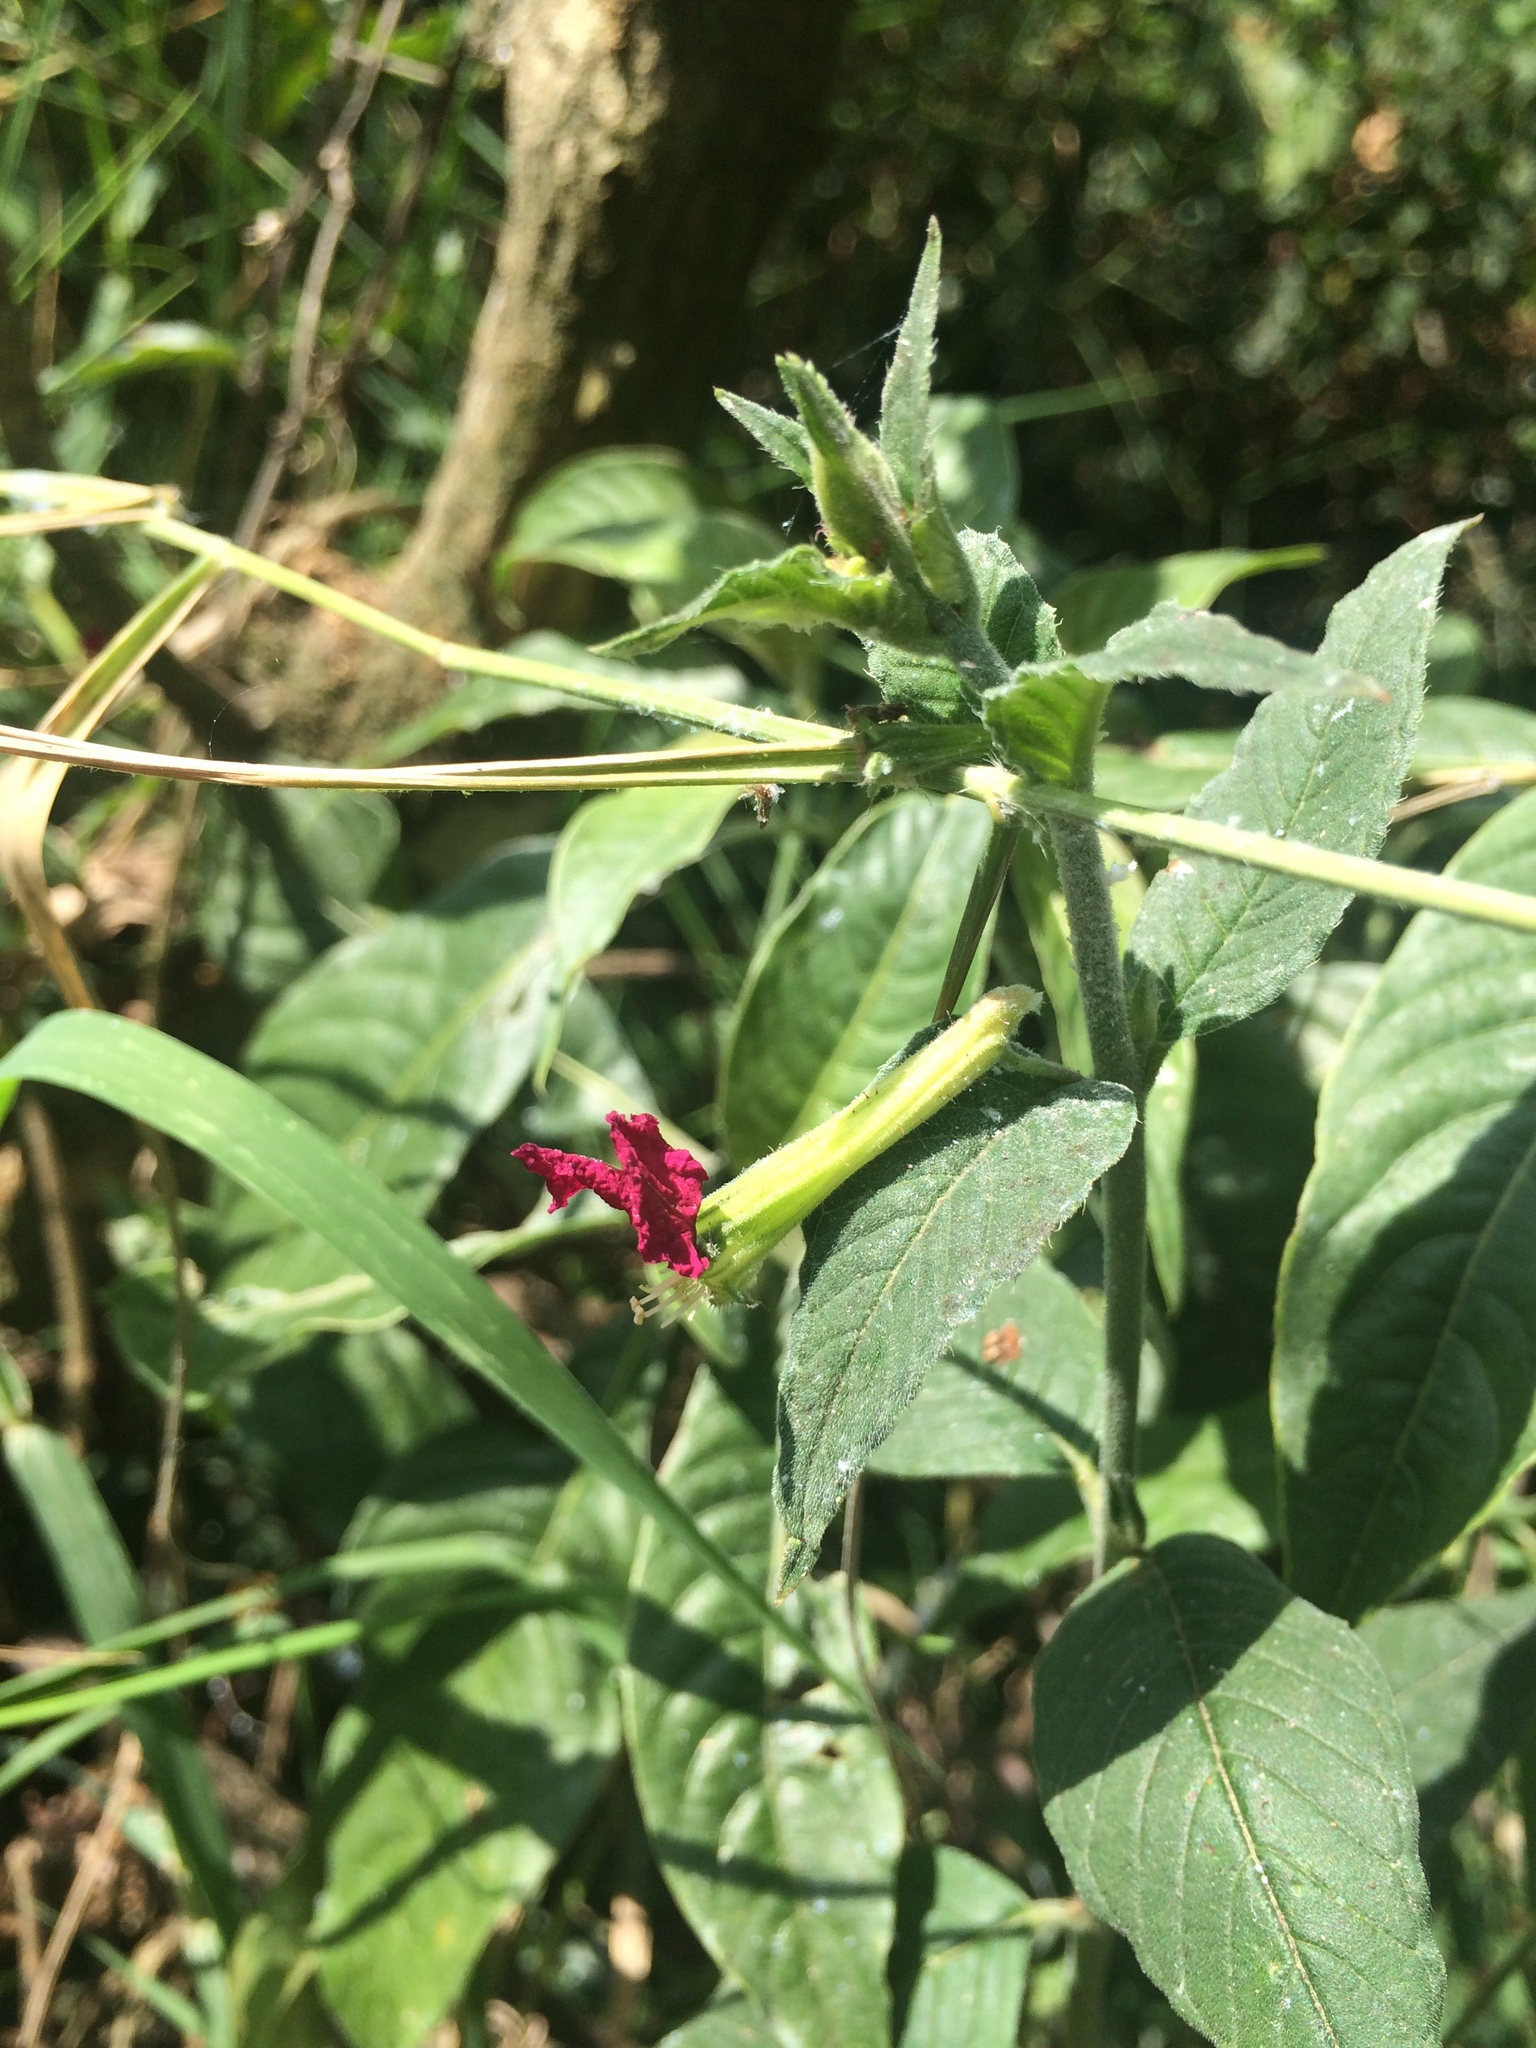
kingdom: Plantae
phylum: Tracheophyta
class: Magnoliopsida
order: Myrtales
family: Lythraceae
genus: Cuphea
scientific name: Cuphea nitidula
